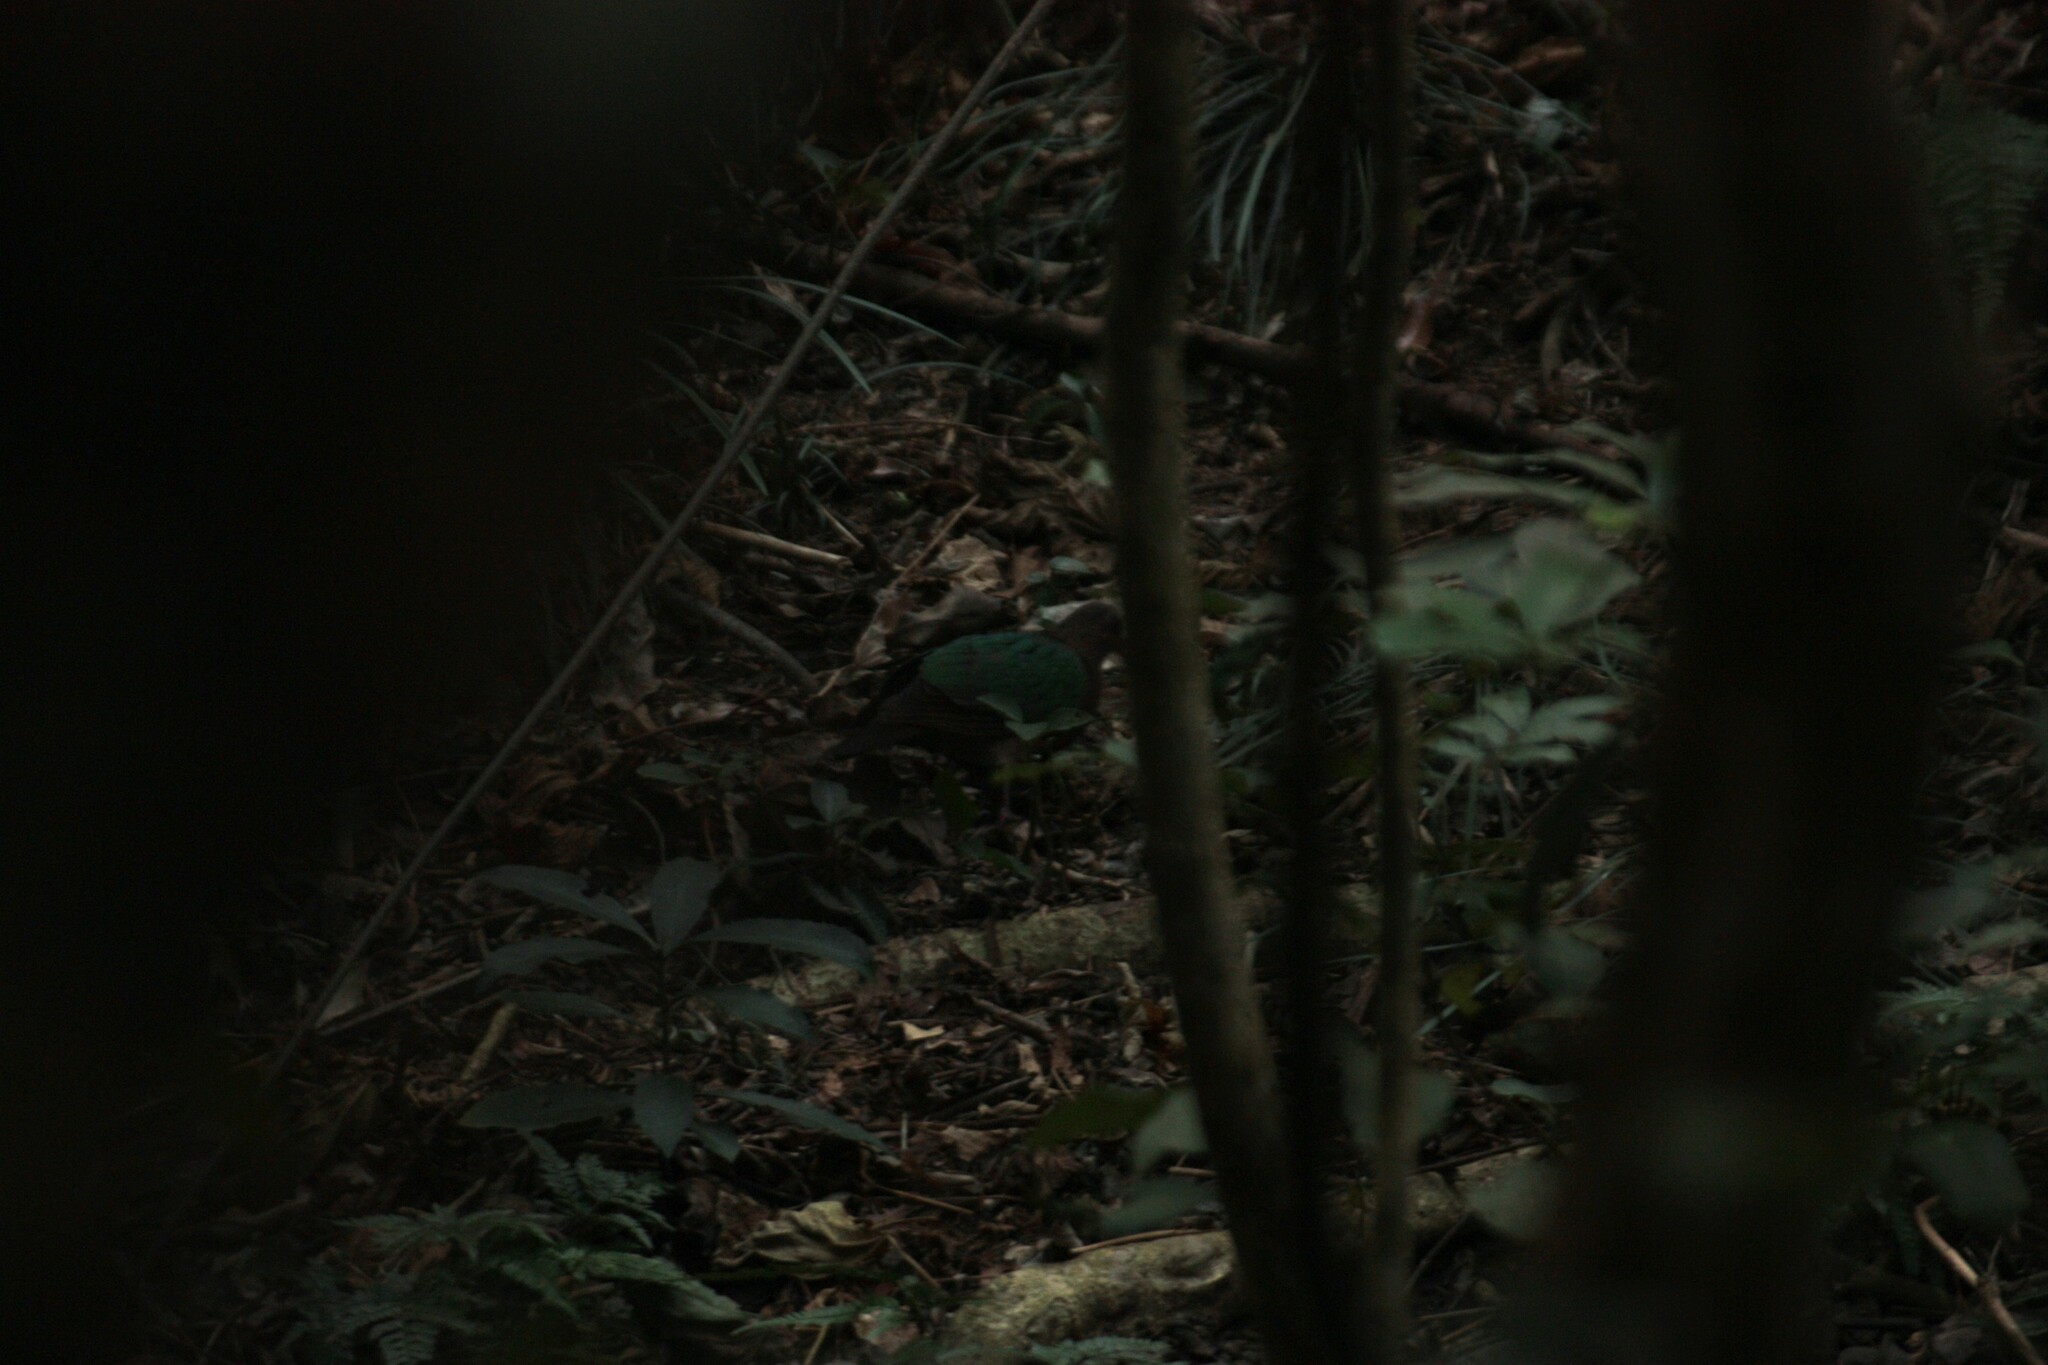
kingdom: Animalia
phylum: Chordata
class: Aves
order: Columbiformes
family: Columbidae
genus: Chalcophaps
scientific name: Chalcophaps indica
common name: Common emerald dove
